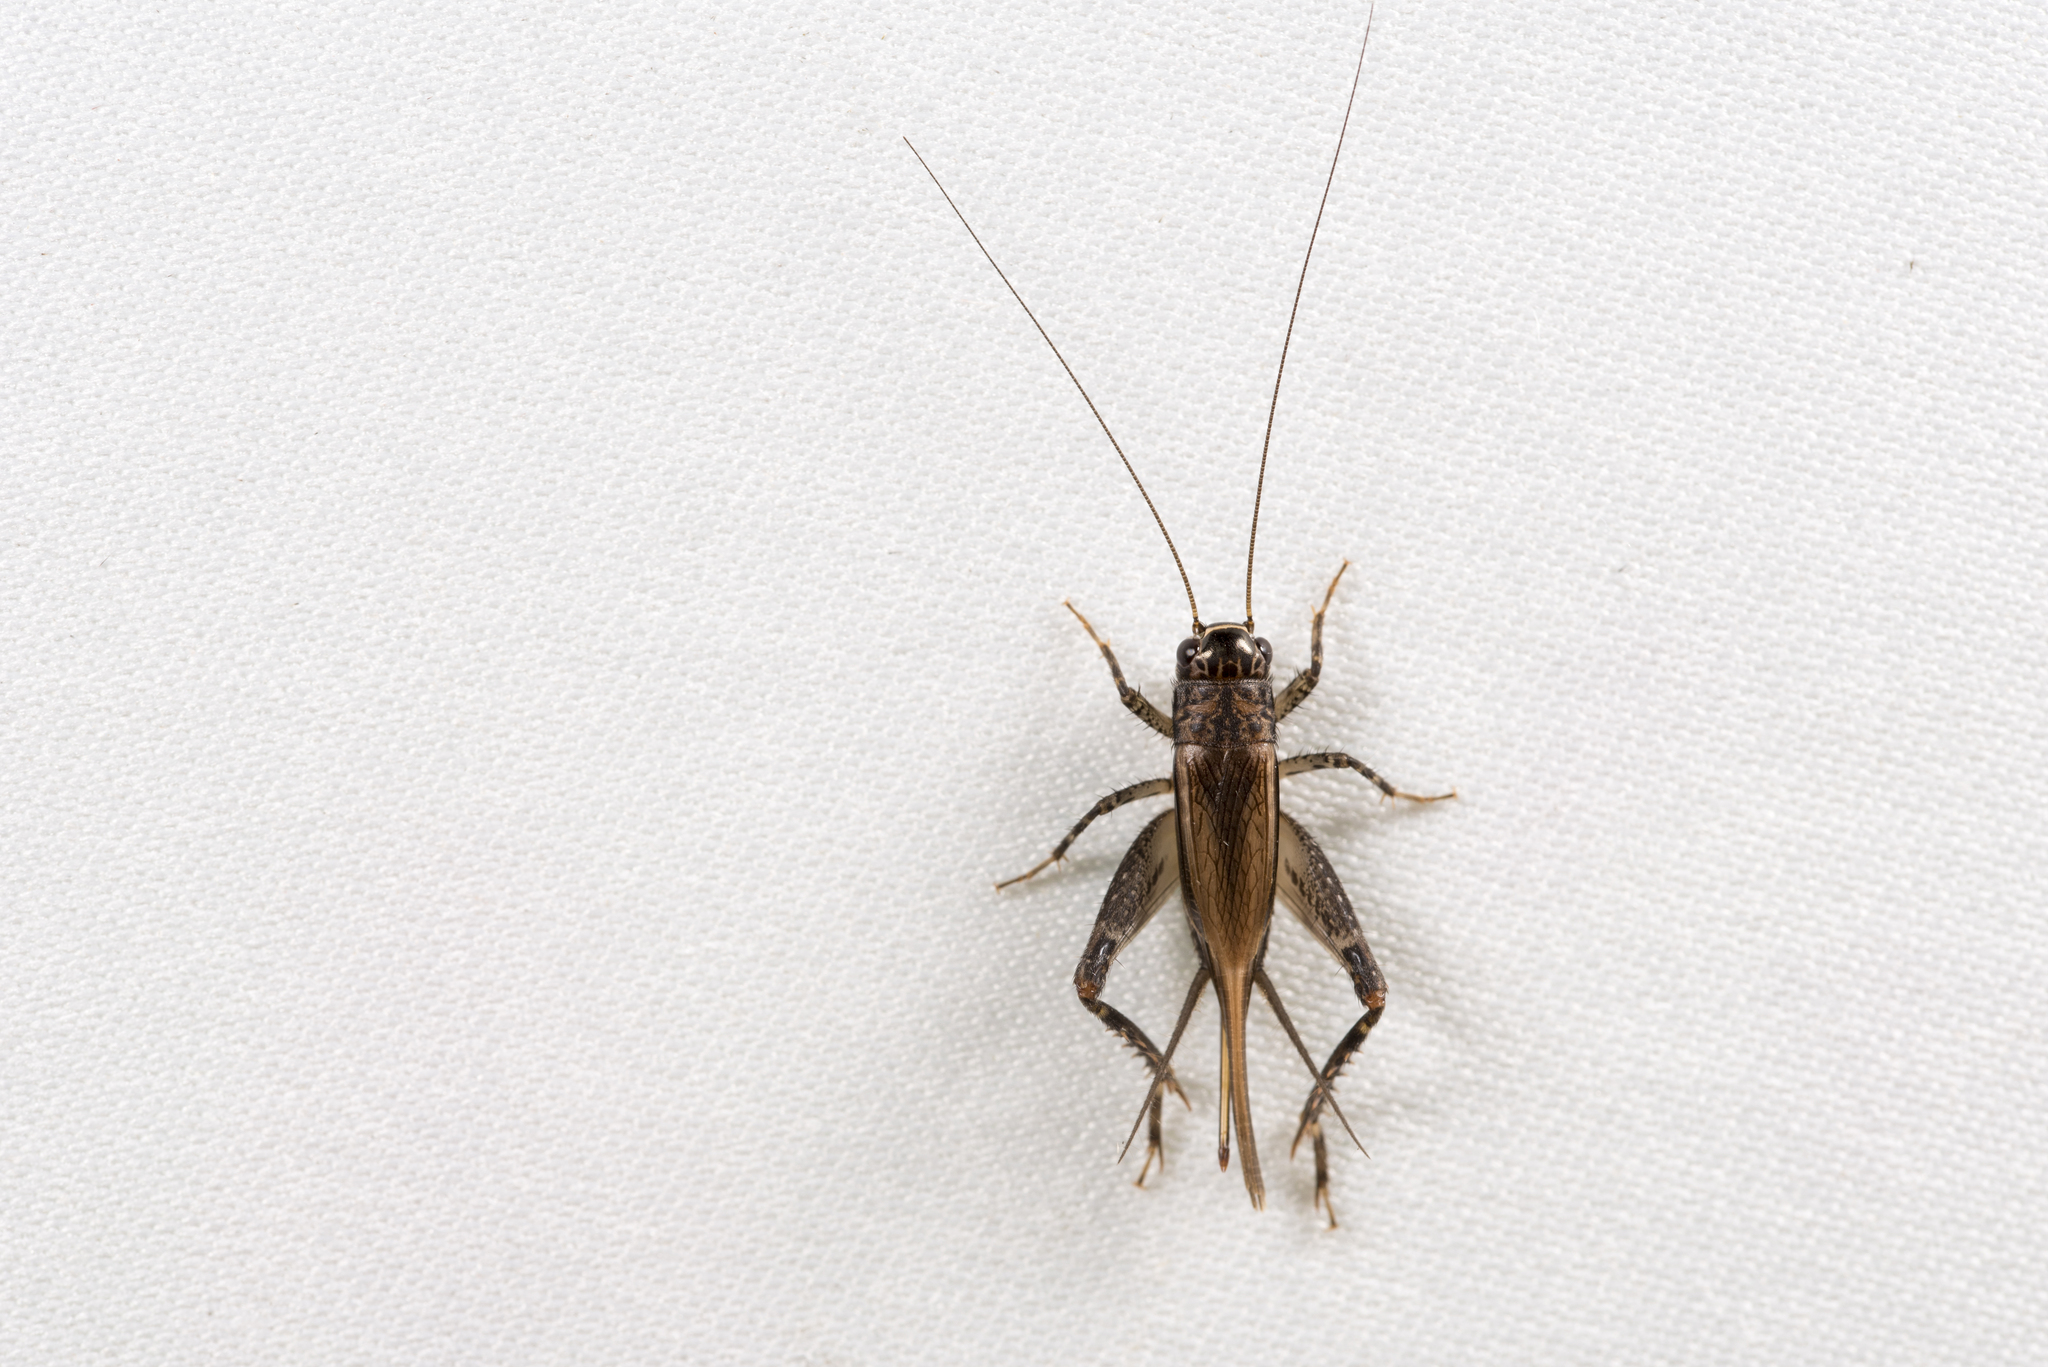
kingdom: Animalia
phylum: Arthropoda
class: Insecta
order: Orthoptera
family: Gryllidae
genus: Loxoblemmus
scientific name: Loxoblemmus equestris
